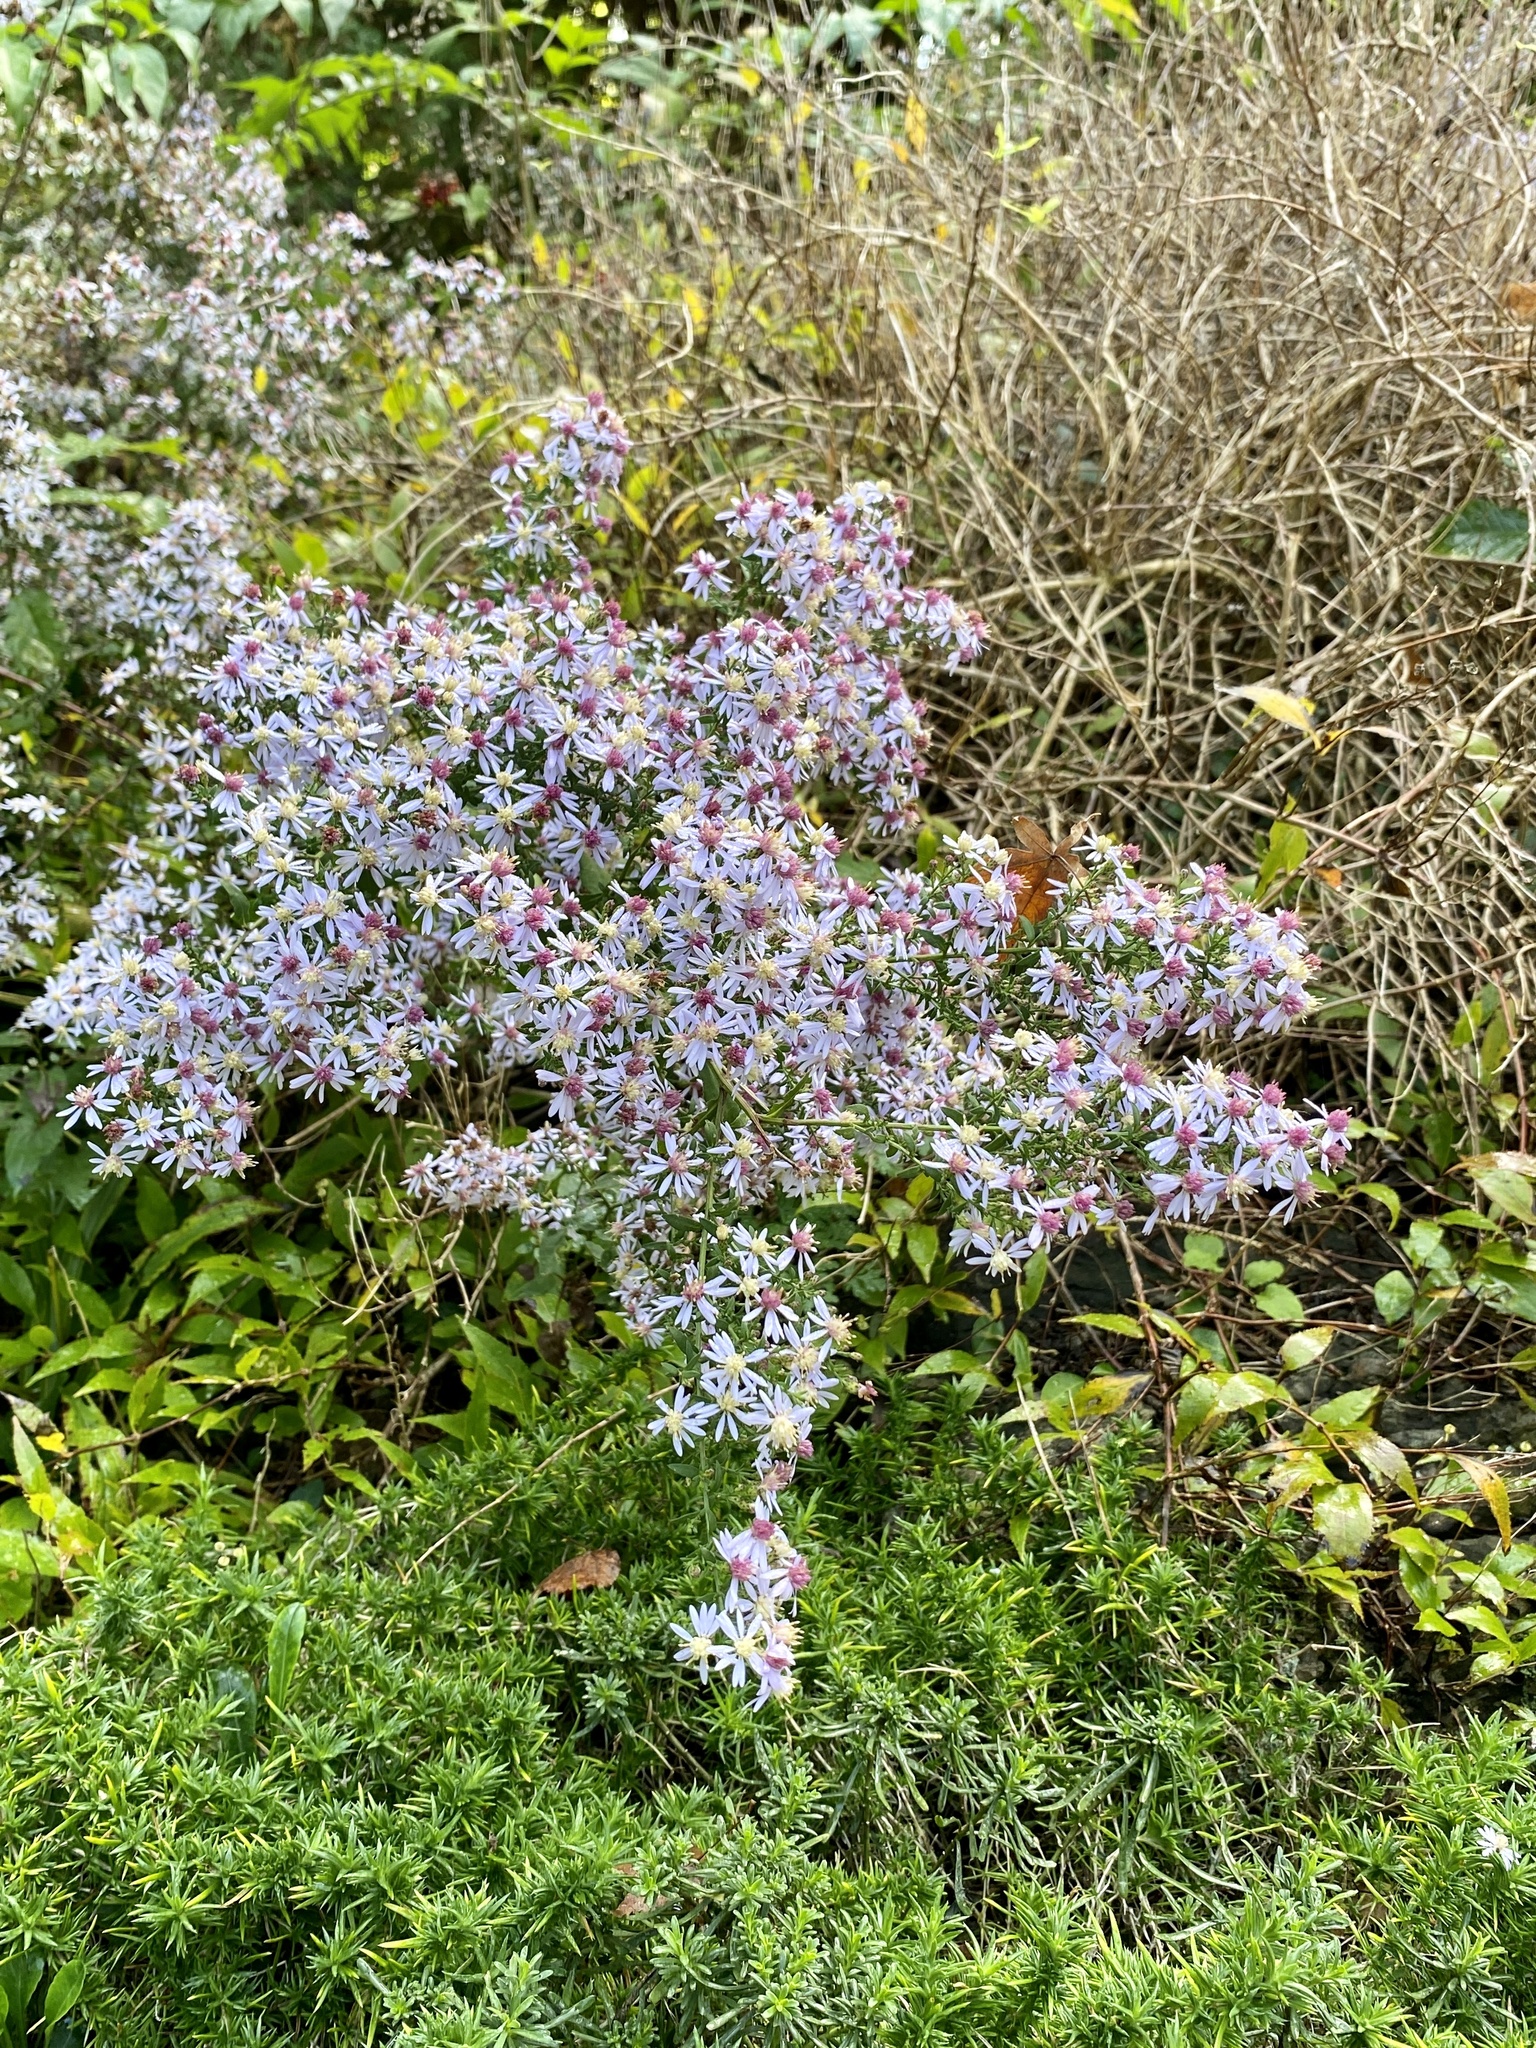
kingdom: Plantae
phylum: Tracheophyta
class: Magnoliopsida
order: Asterales
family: Asteraceae
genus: Symphyotrichum
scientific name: Symphyotrichum cordifolium
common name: Beeweed
